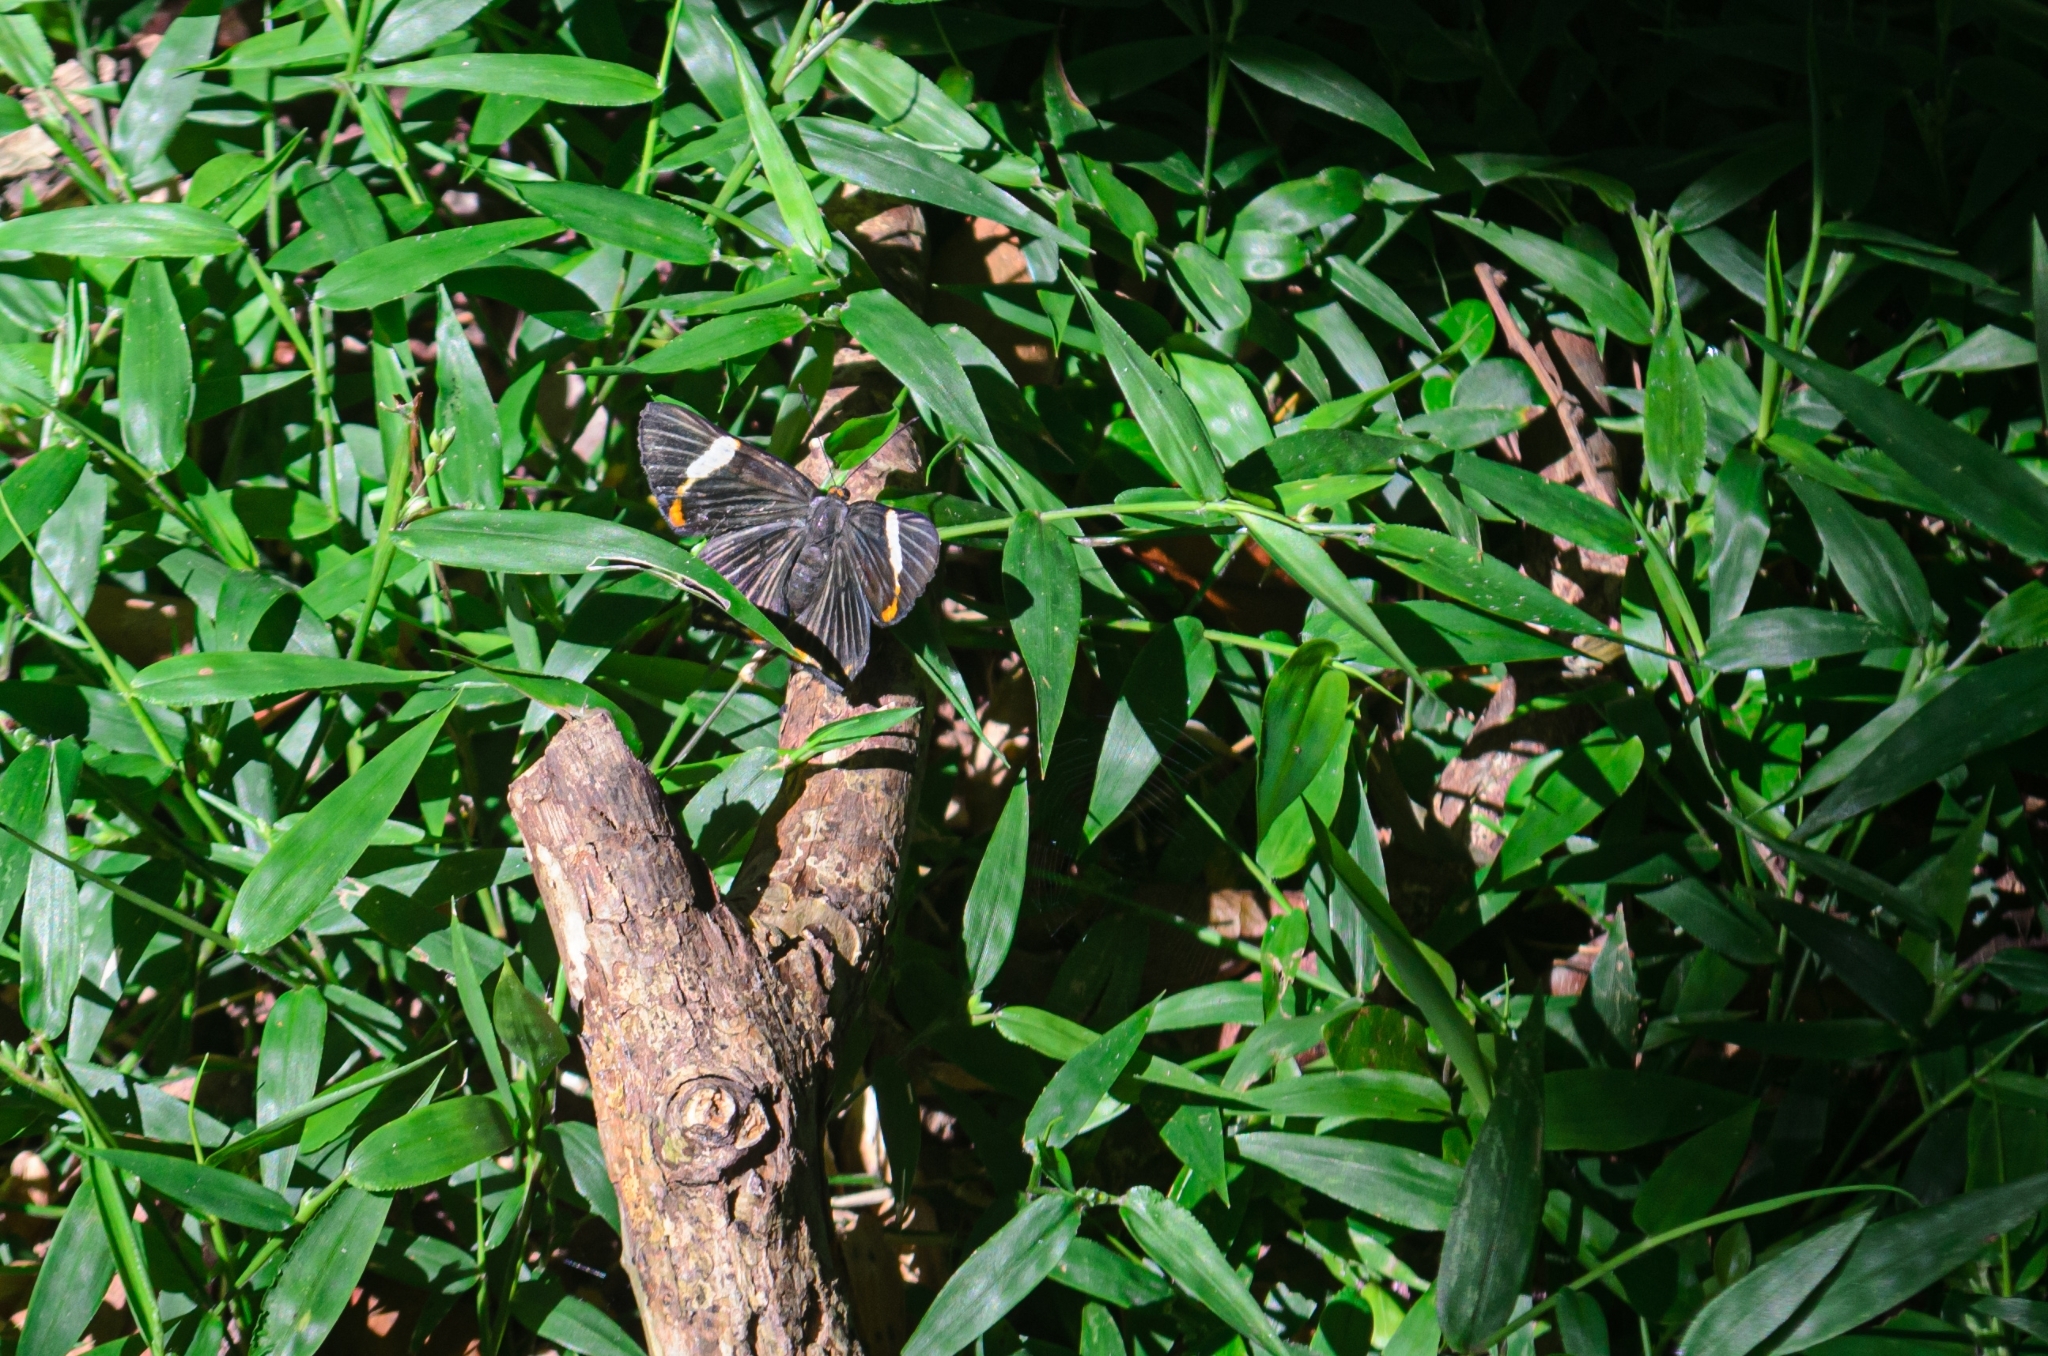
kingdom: Animalia
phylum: Arthropoda
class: Insecta
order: Lepidoptera
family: Riodinidae
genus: Riodina
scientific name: Riodina lycisca
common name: Lycisca metalmark
